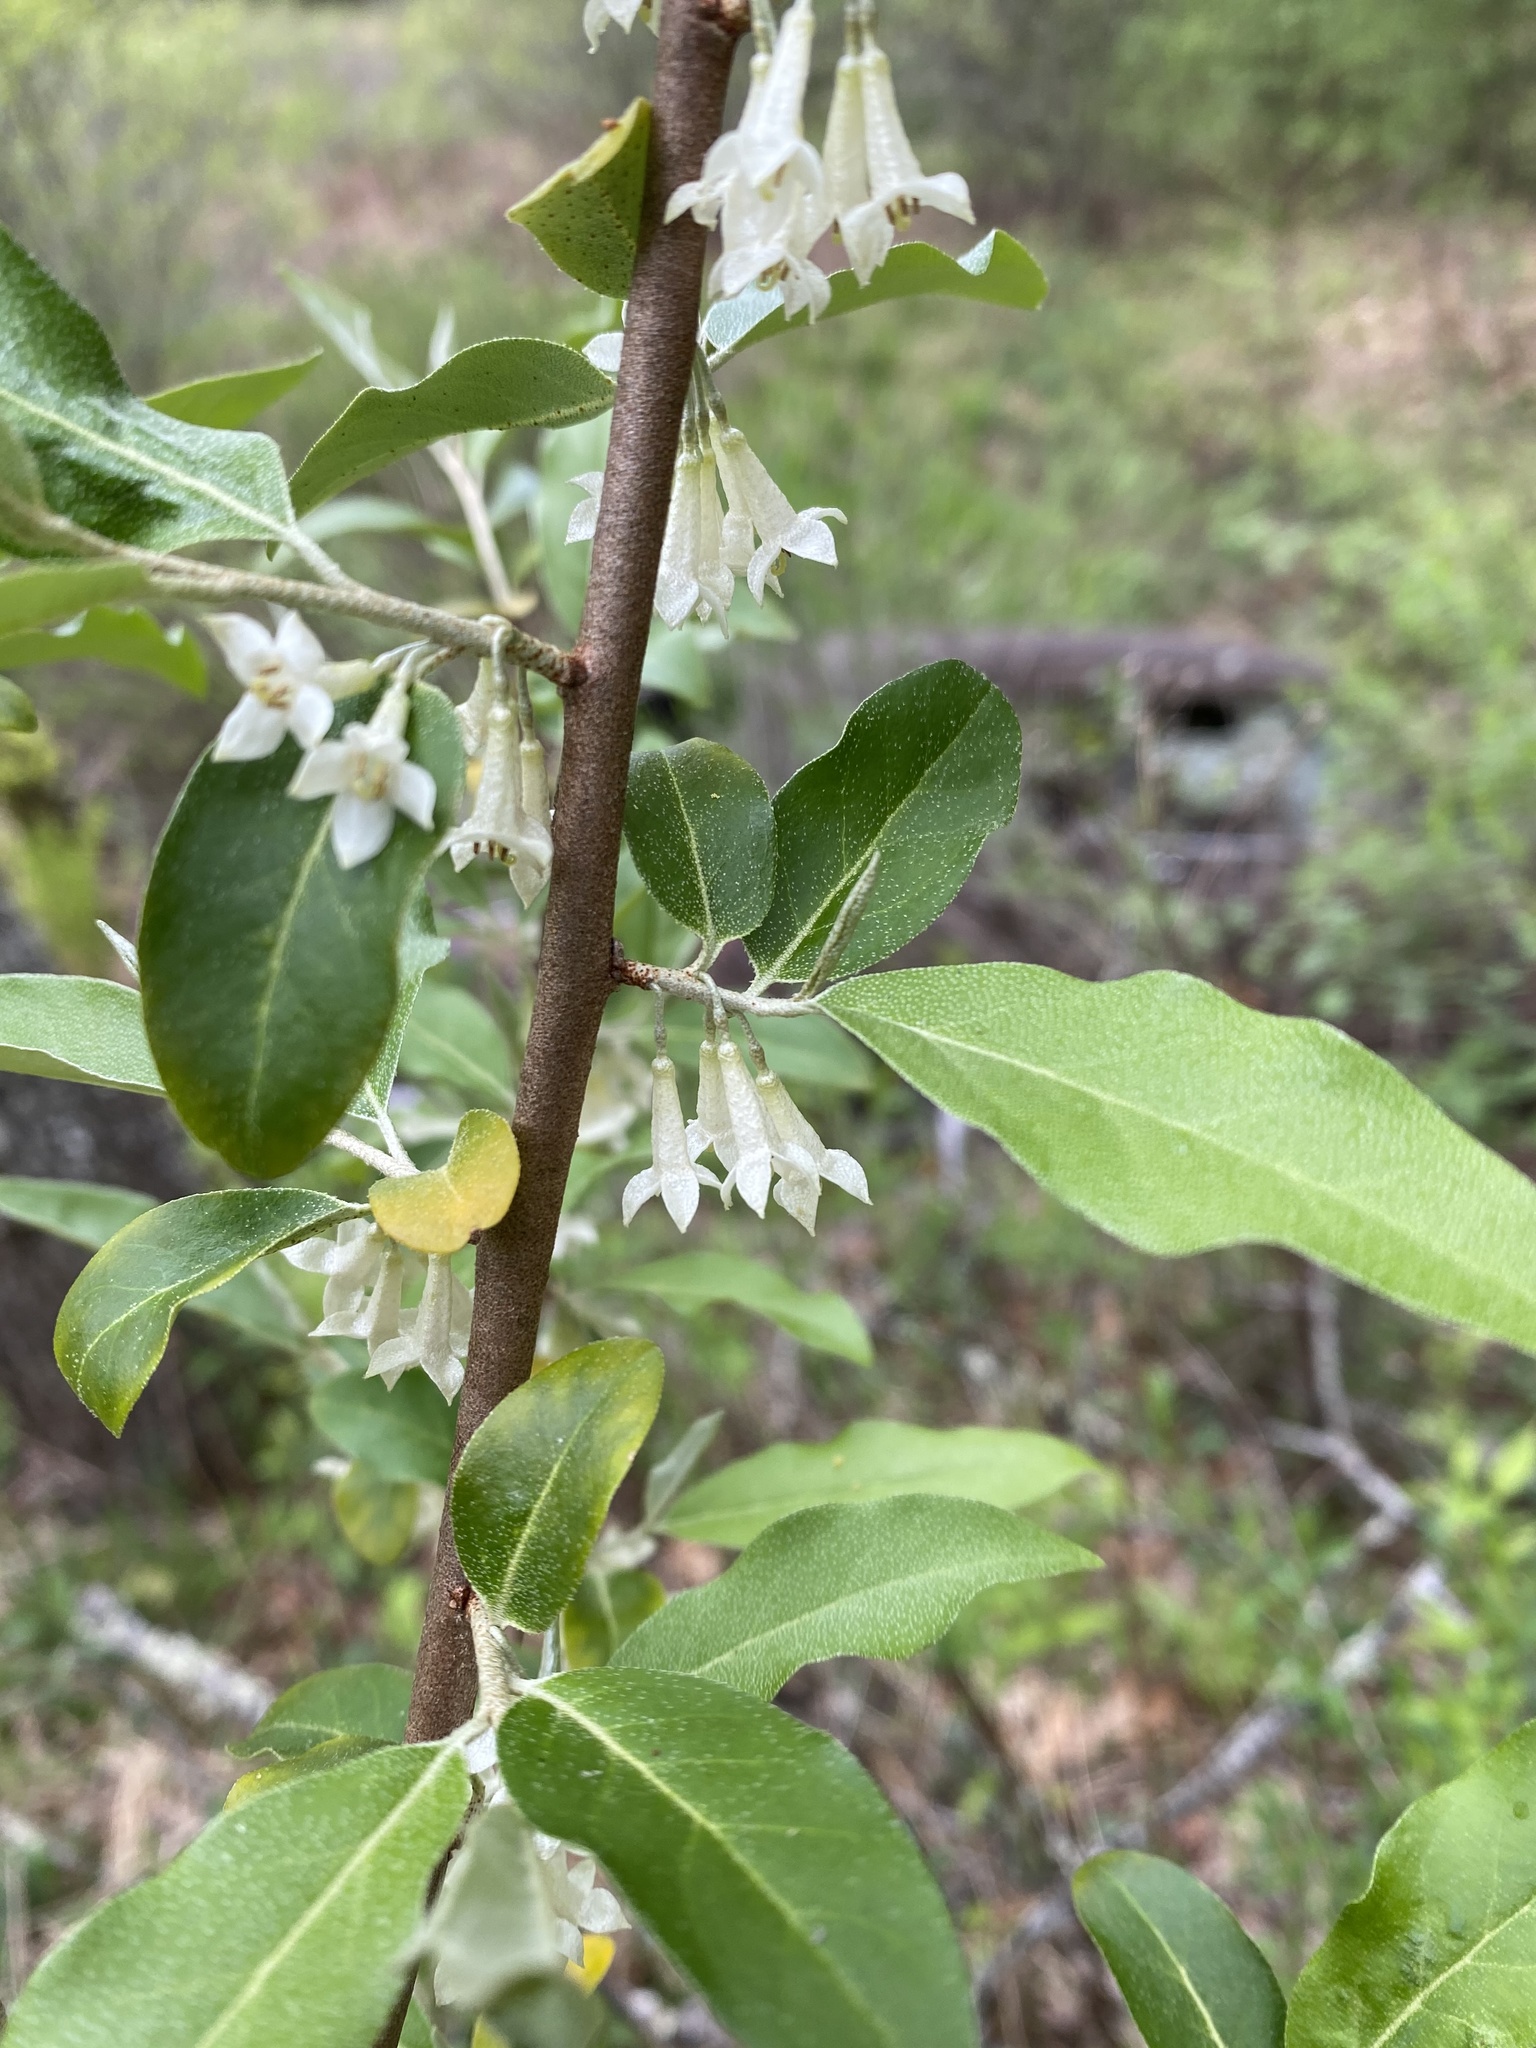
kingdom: Plantae
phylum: Tracheophyta
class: Magnoliopsida
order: Rosales
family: Elaeagnaceae
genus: Elaeagnus
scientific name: Elaeagnus umbellata
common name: Autumn olive
